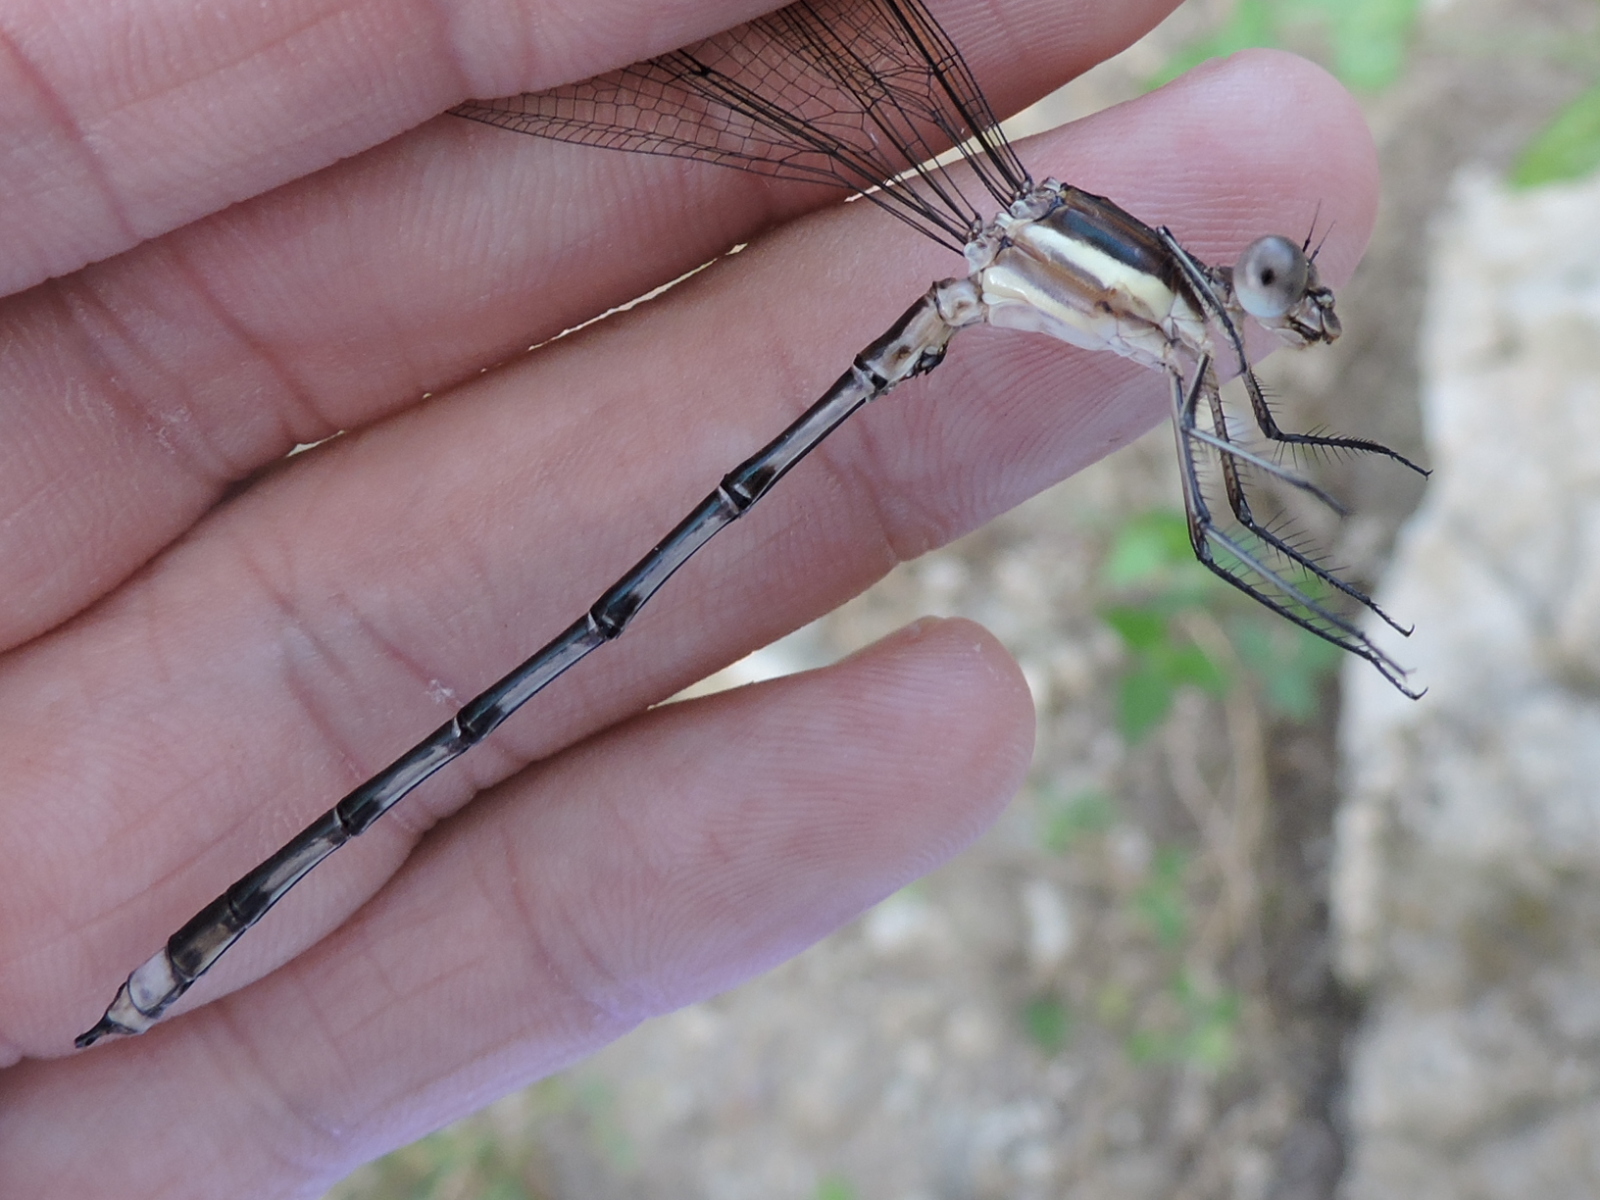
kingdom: Animalia
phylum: Arthropoda
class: Insecta
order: Odonata
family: Lestidae
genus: Archilestes
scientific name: Archilestes grandis
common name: Great spreadwing
